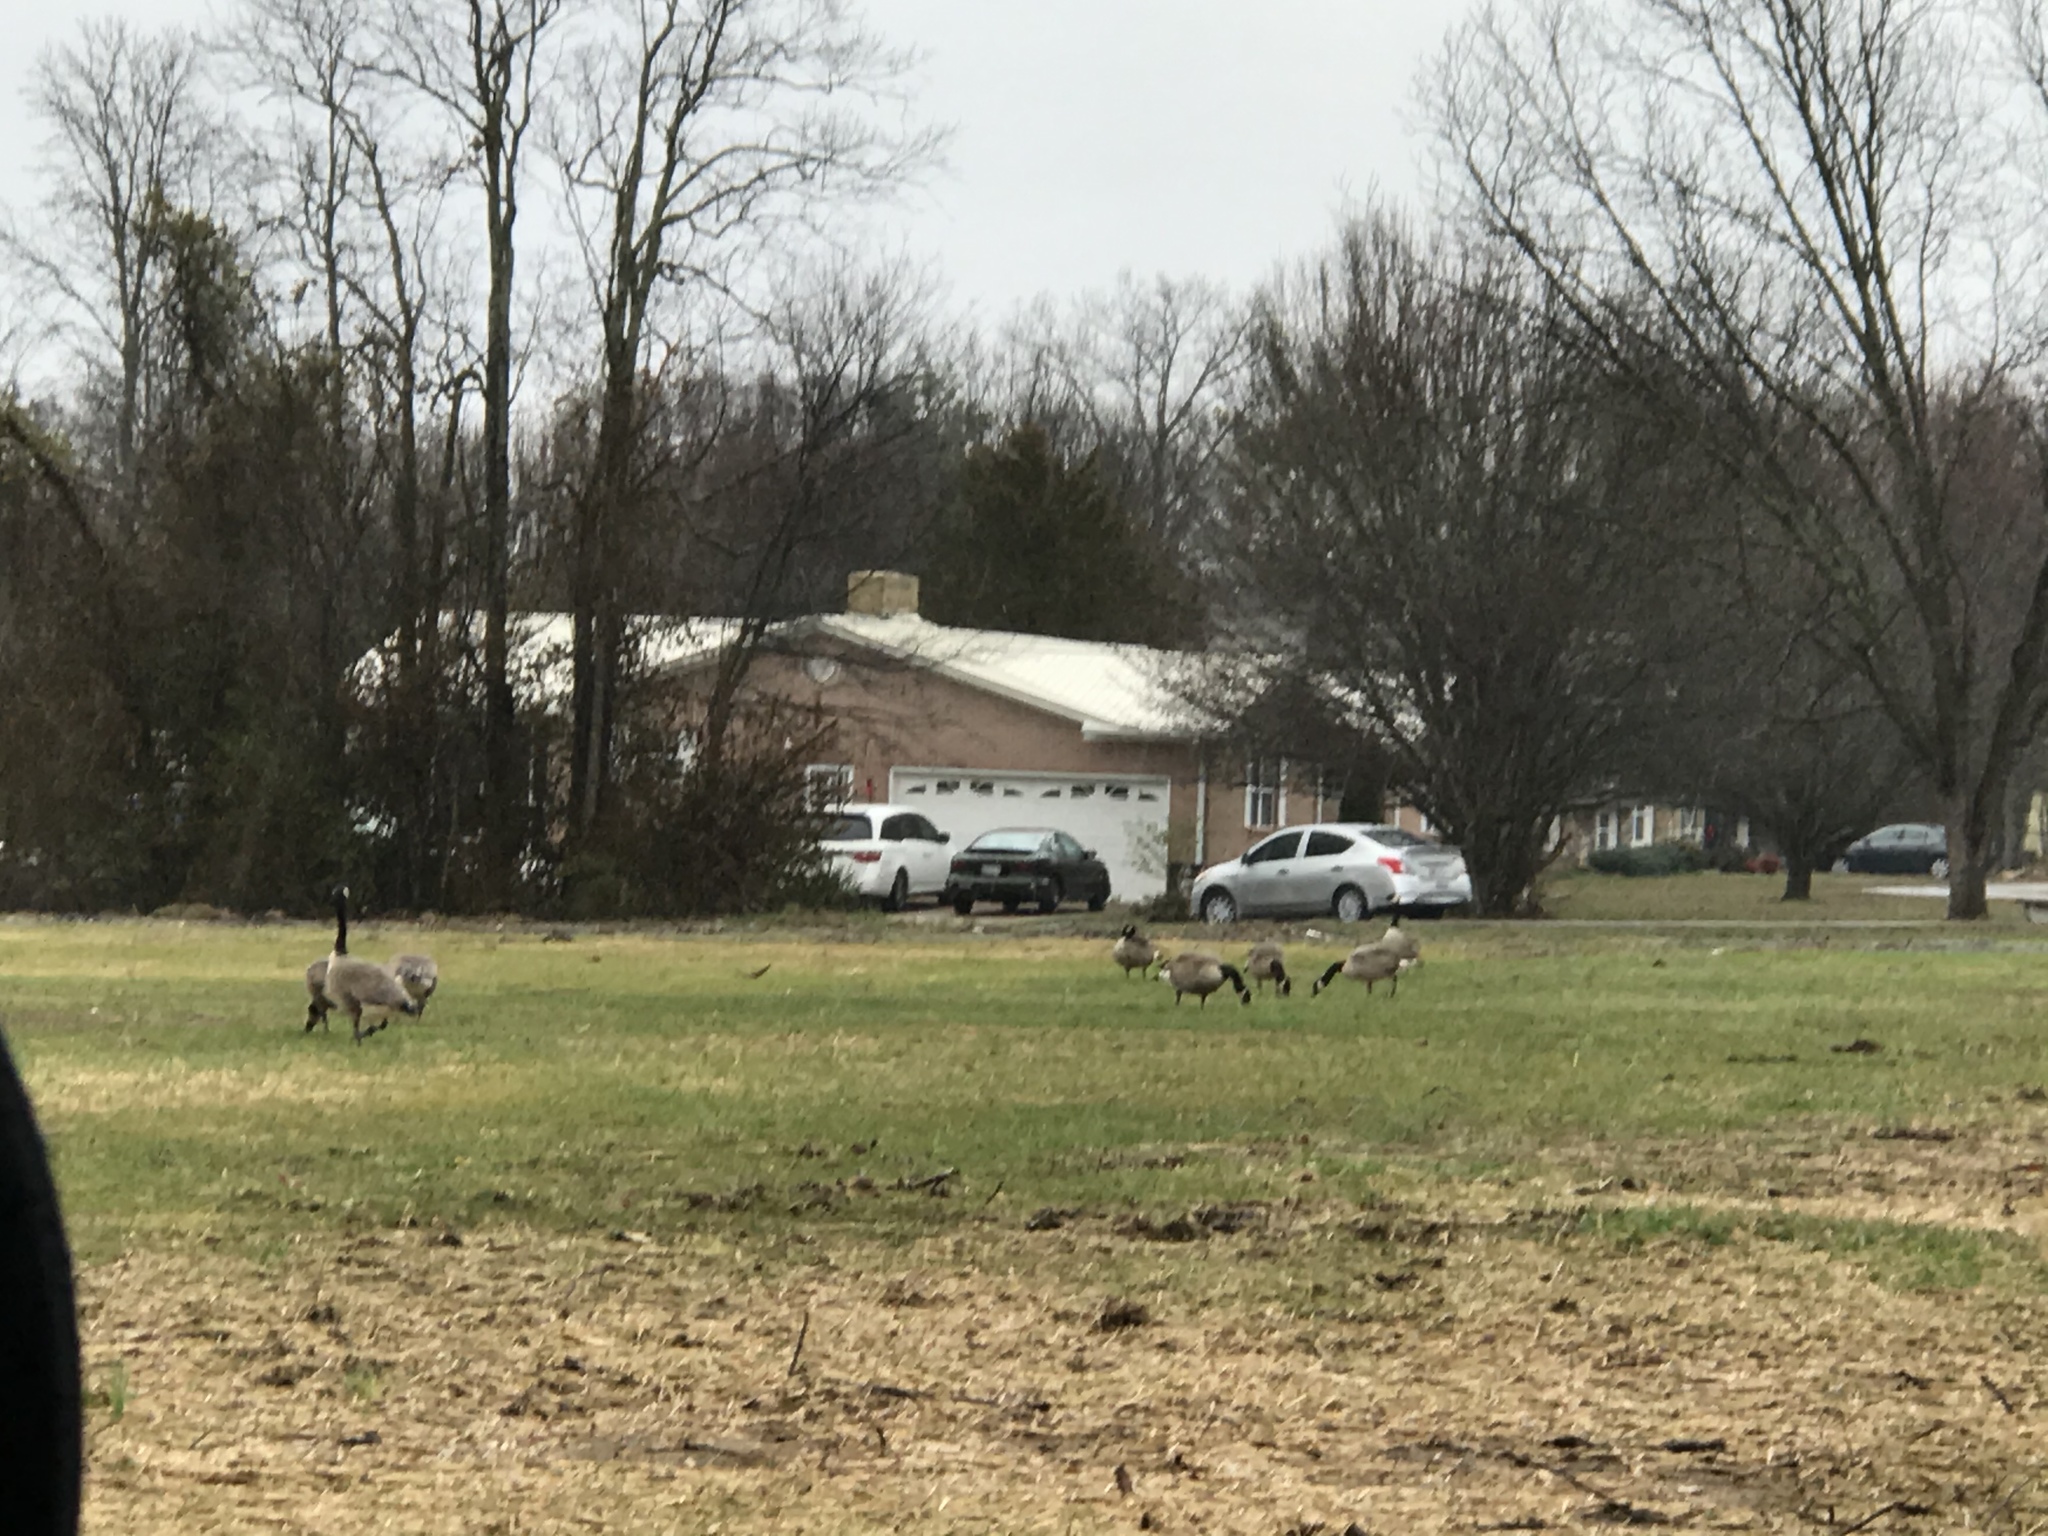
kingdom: Animalia
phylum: Chordata
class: Aves
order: Anseriformes
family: Anatidae
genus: Branta
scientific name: Branta canadensis
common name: Canada goose
